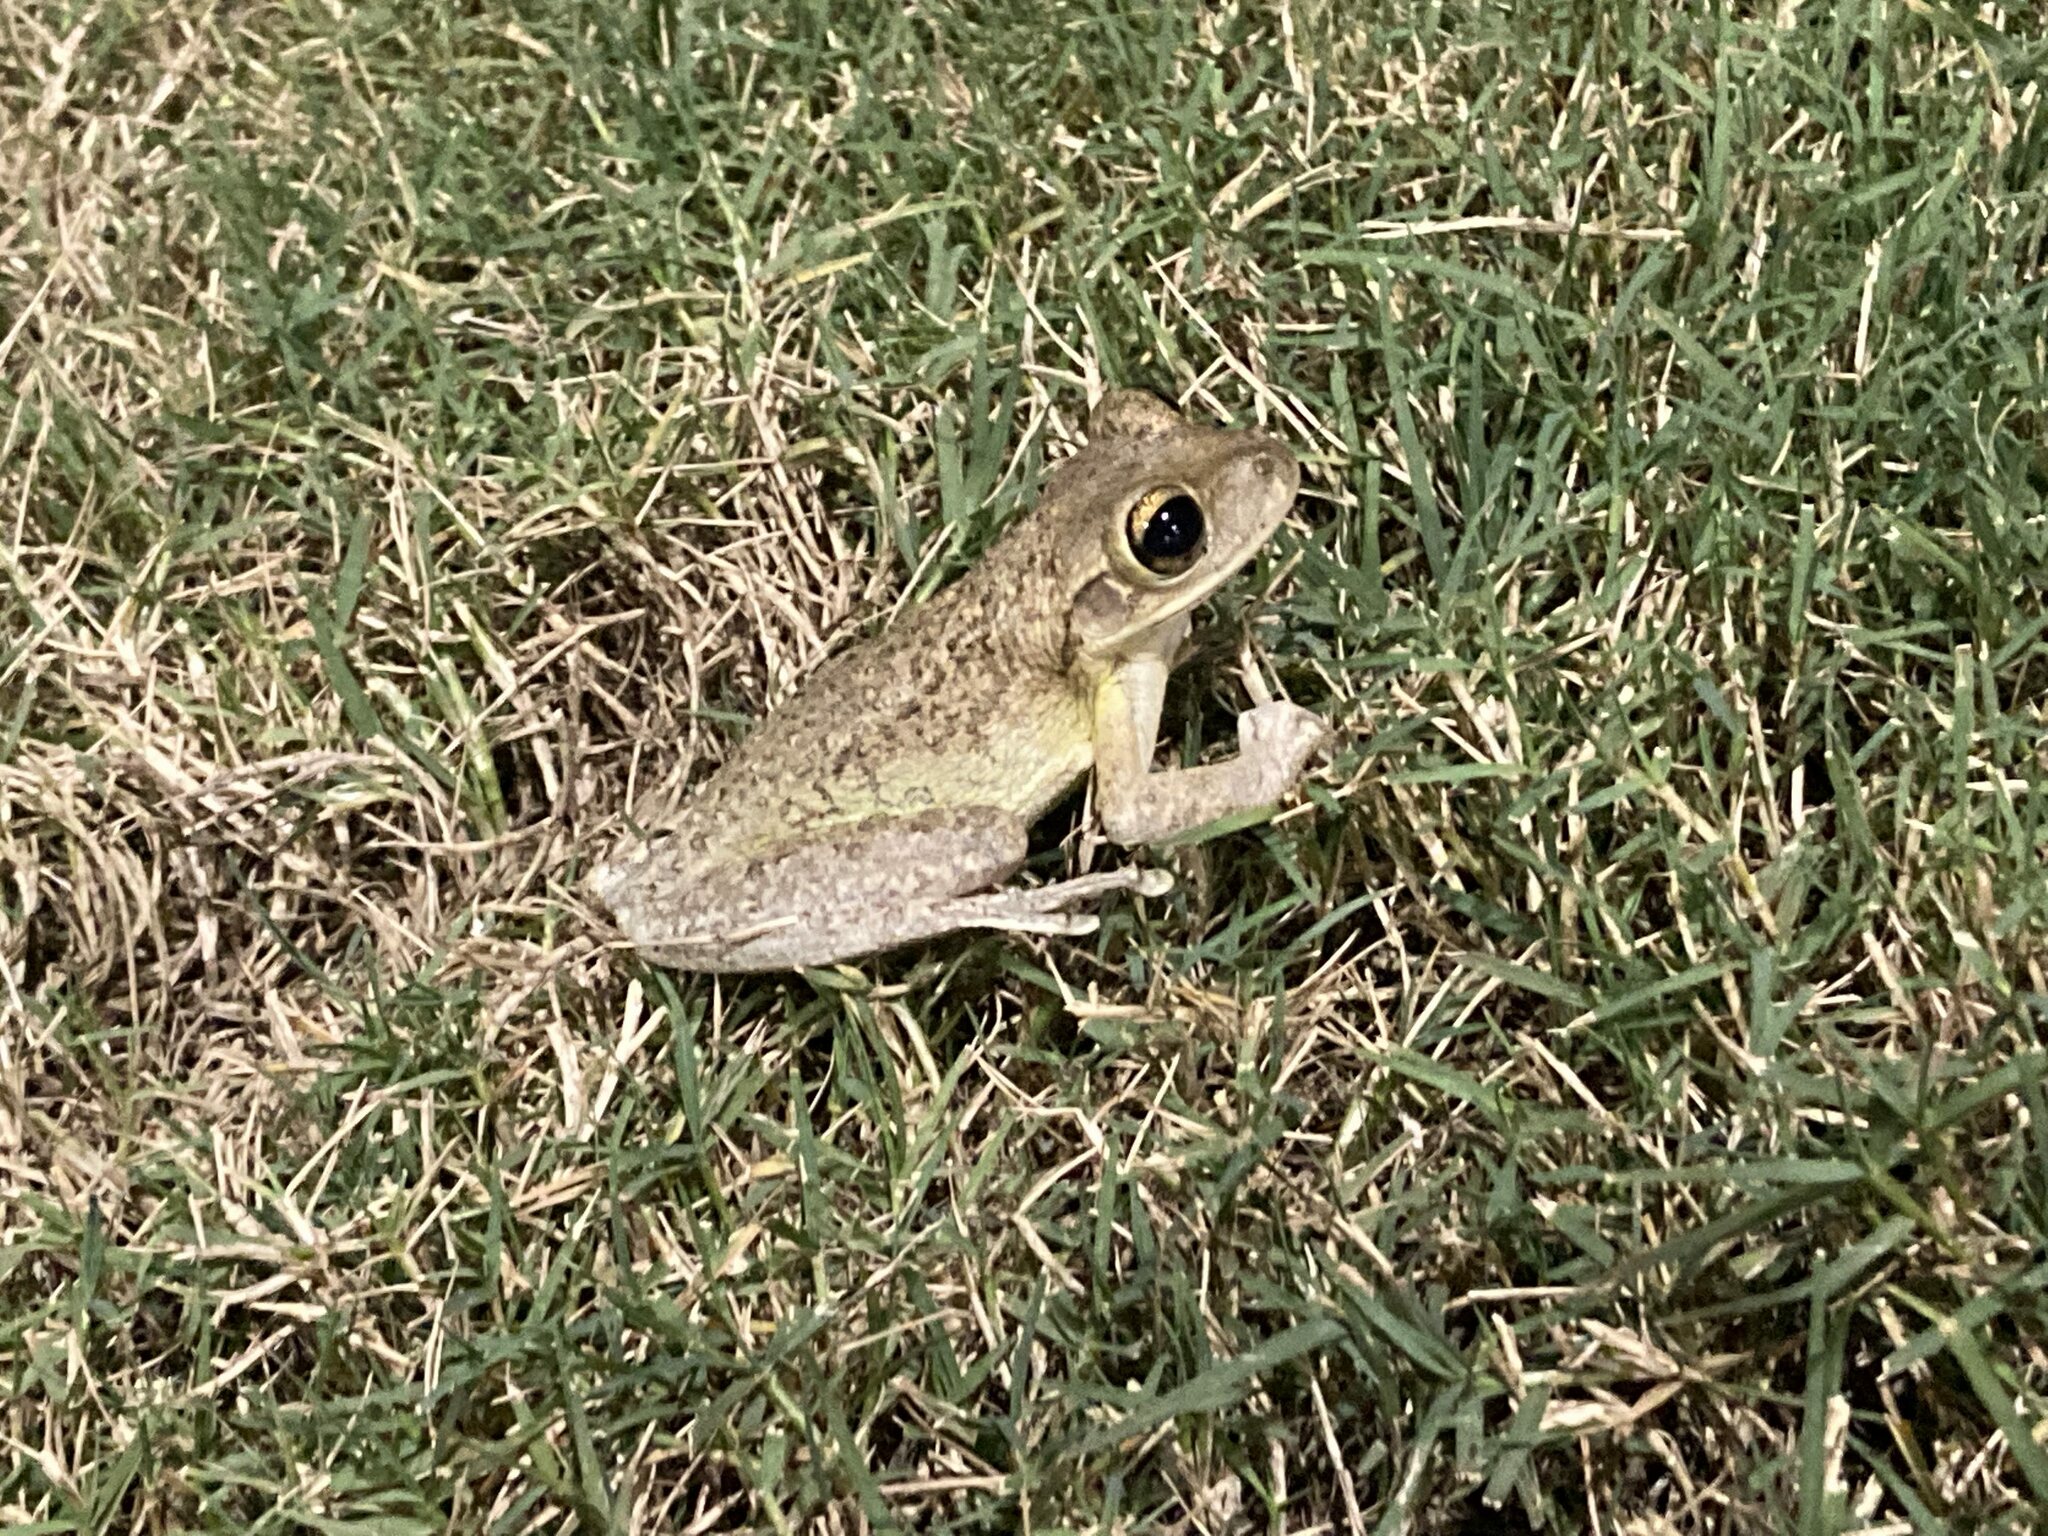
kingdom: Animalia
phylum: Chordata
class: Amphibia
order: Anura
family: Hylidae
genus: Osteopilus
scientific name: Osteopilus septentrionalis
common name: Cuban treefrog
